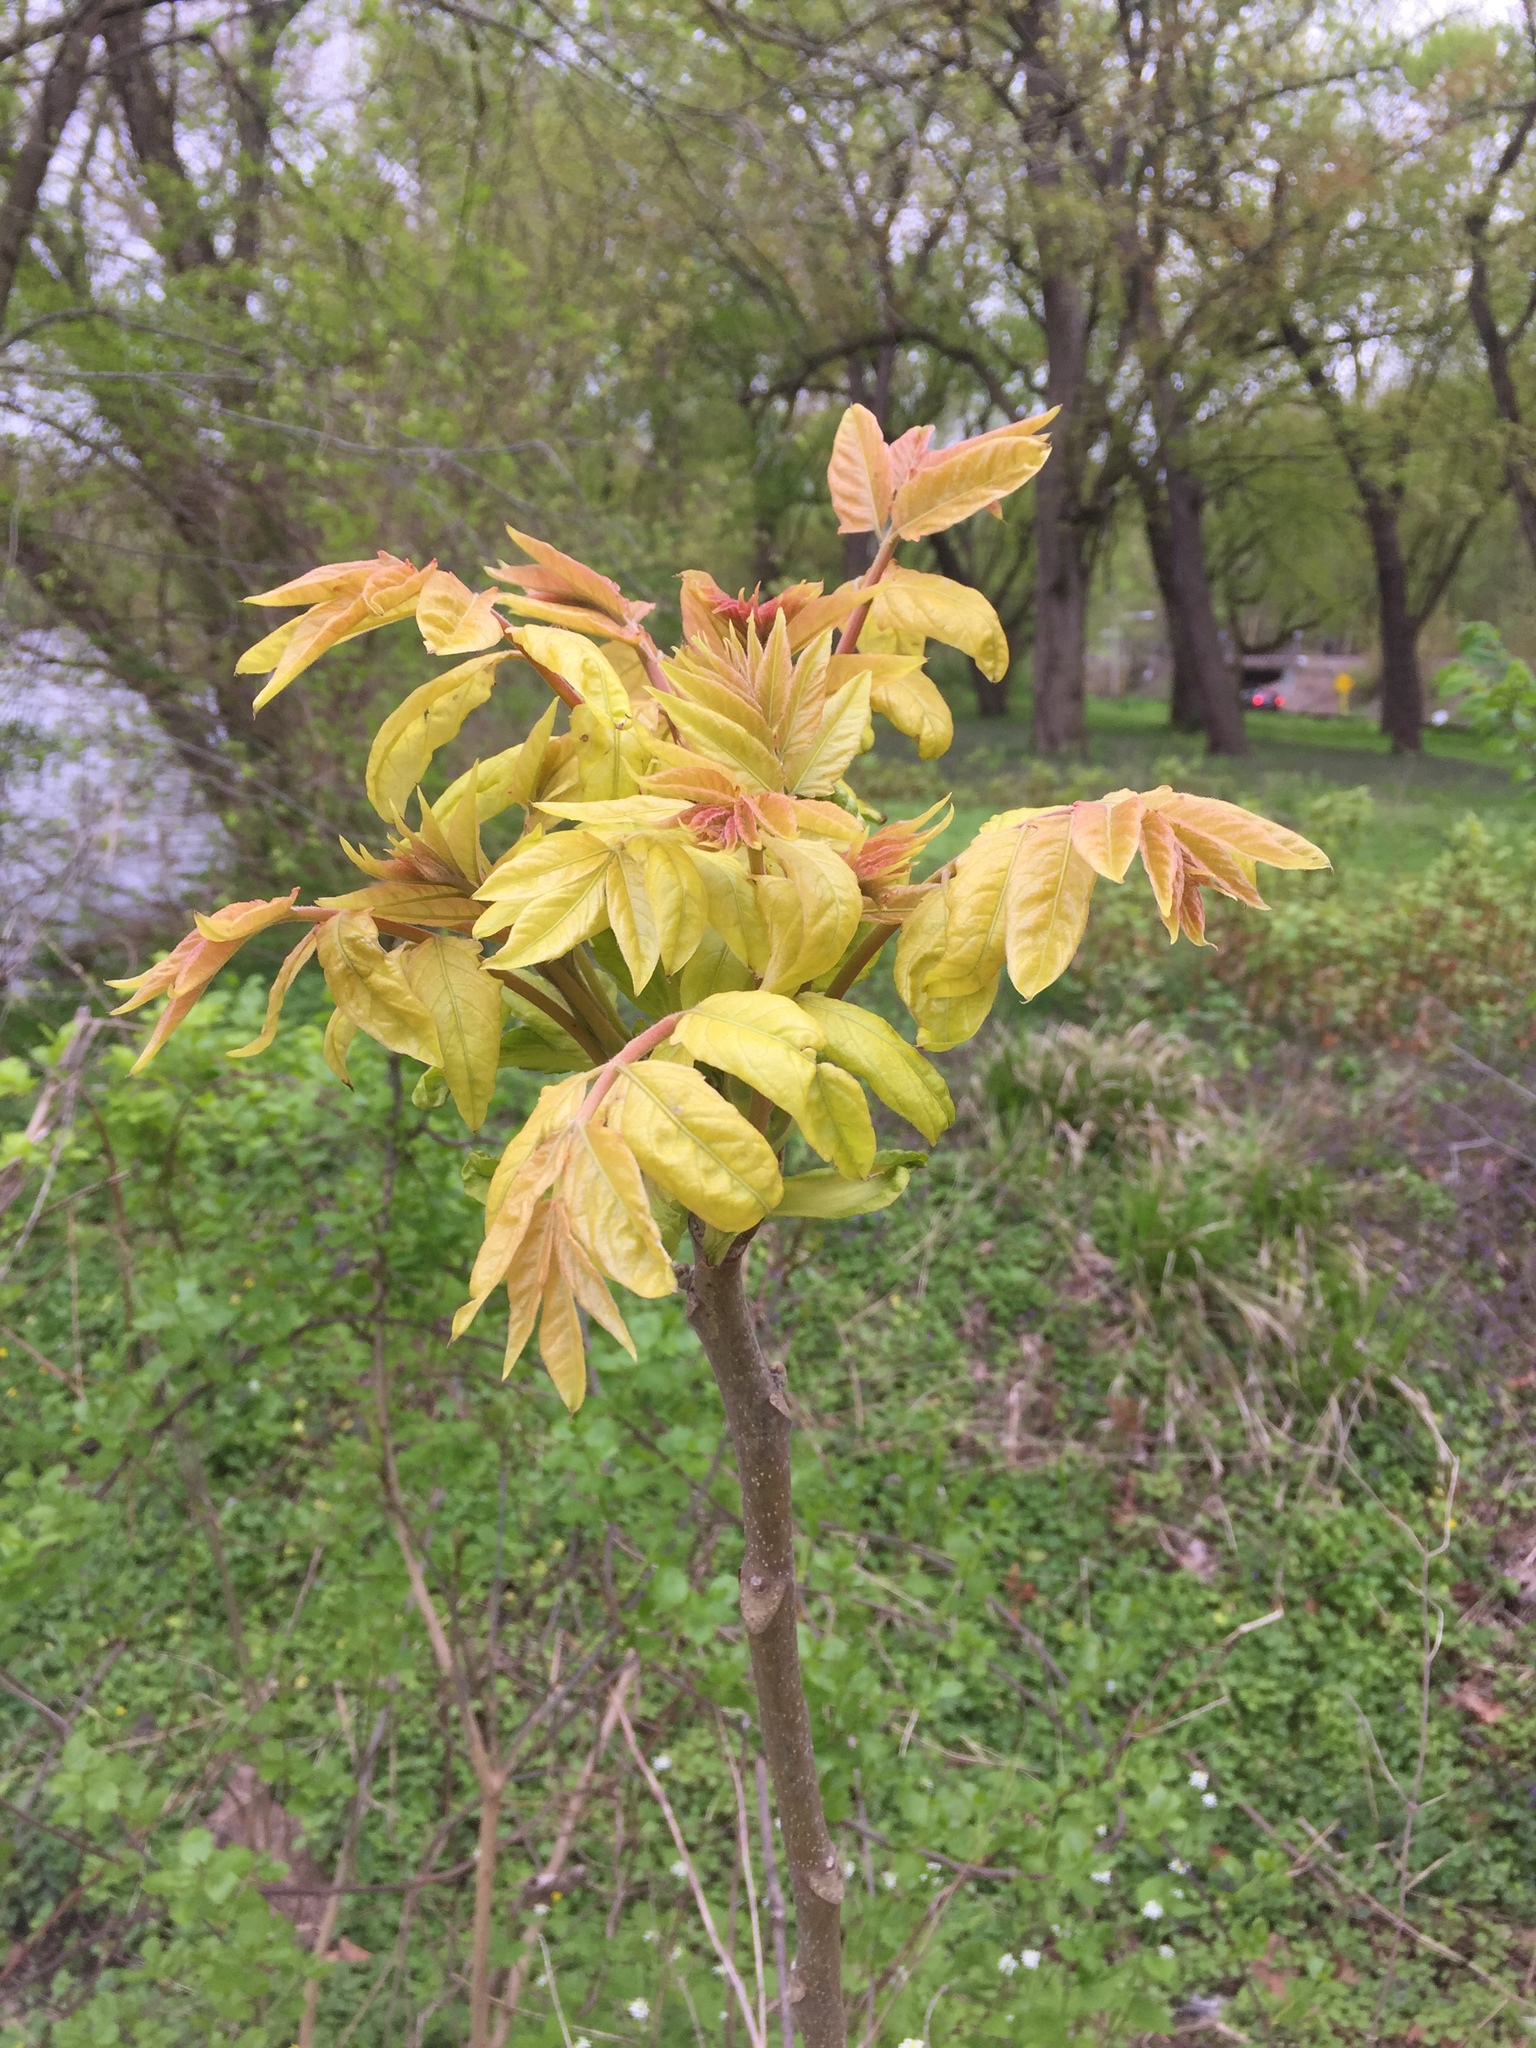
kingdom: Plantae
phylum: Tracheophyta
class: Magnoliopsida
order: Sapindales
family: Simaroubaceae
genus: Ailanthus
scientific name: Ailanthus altissima
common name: Tree-of-heaven
